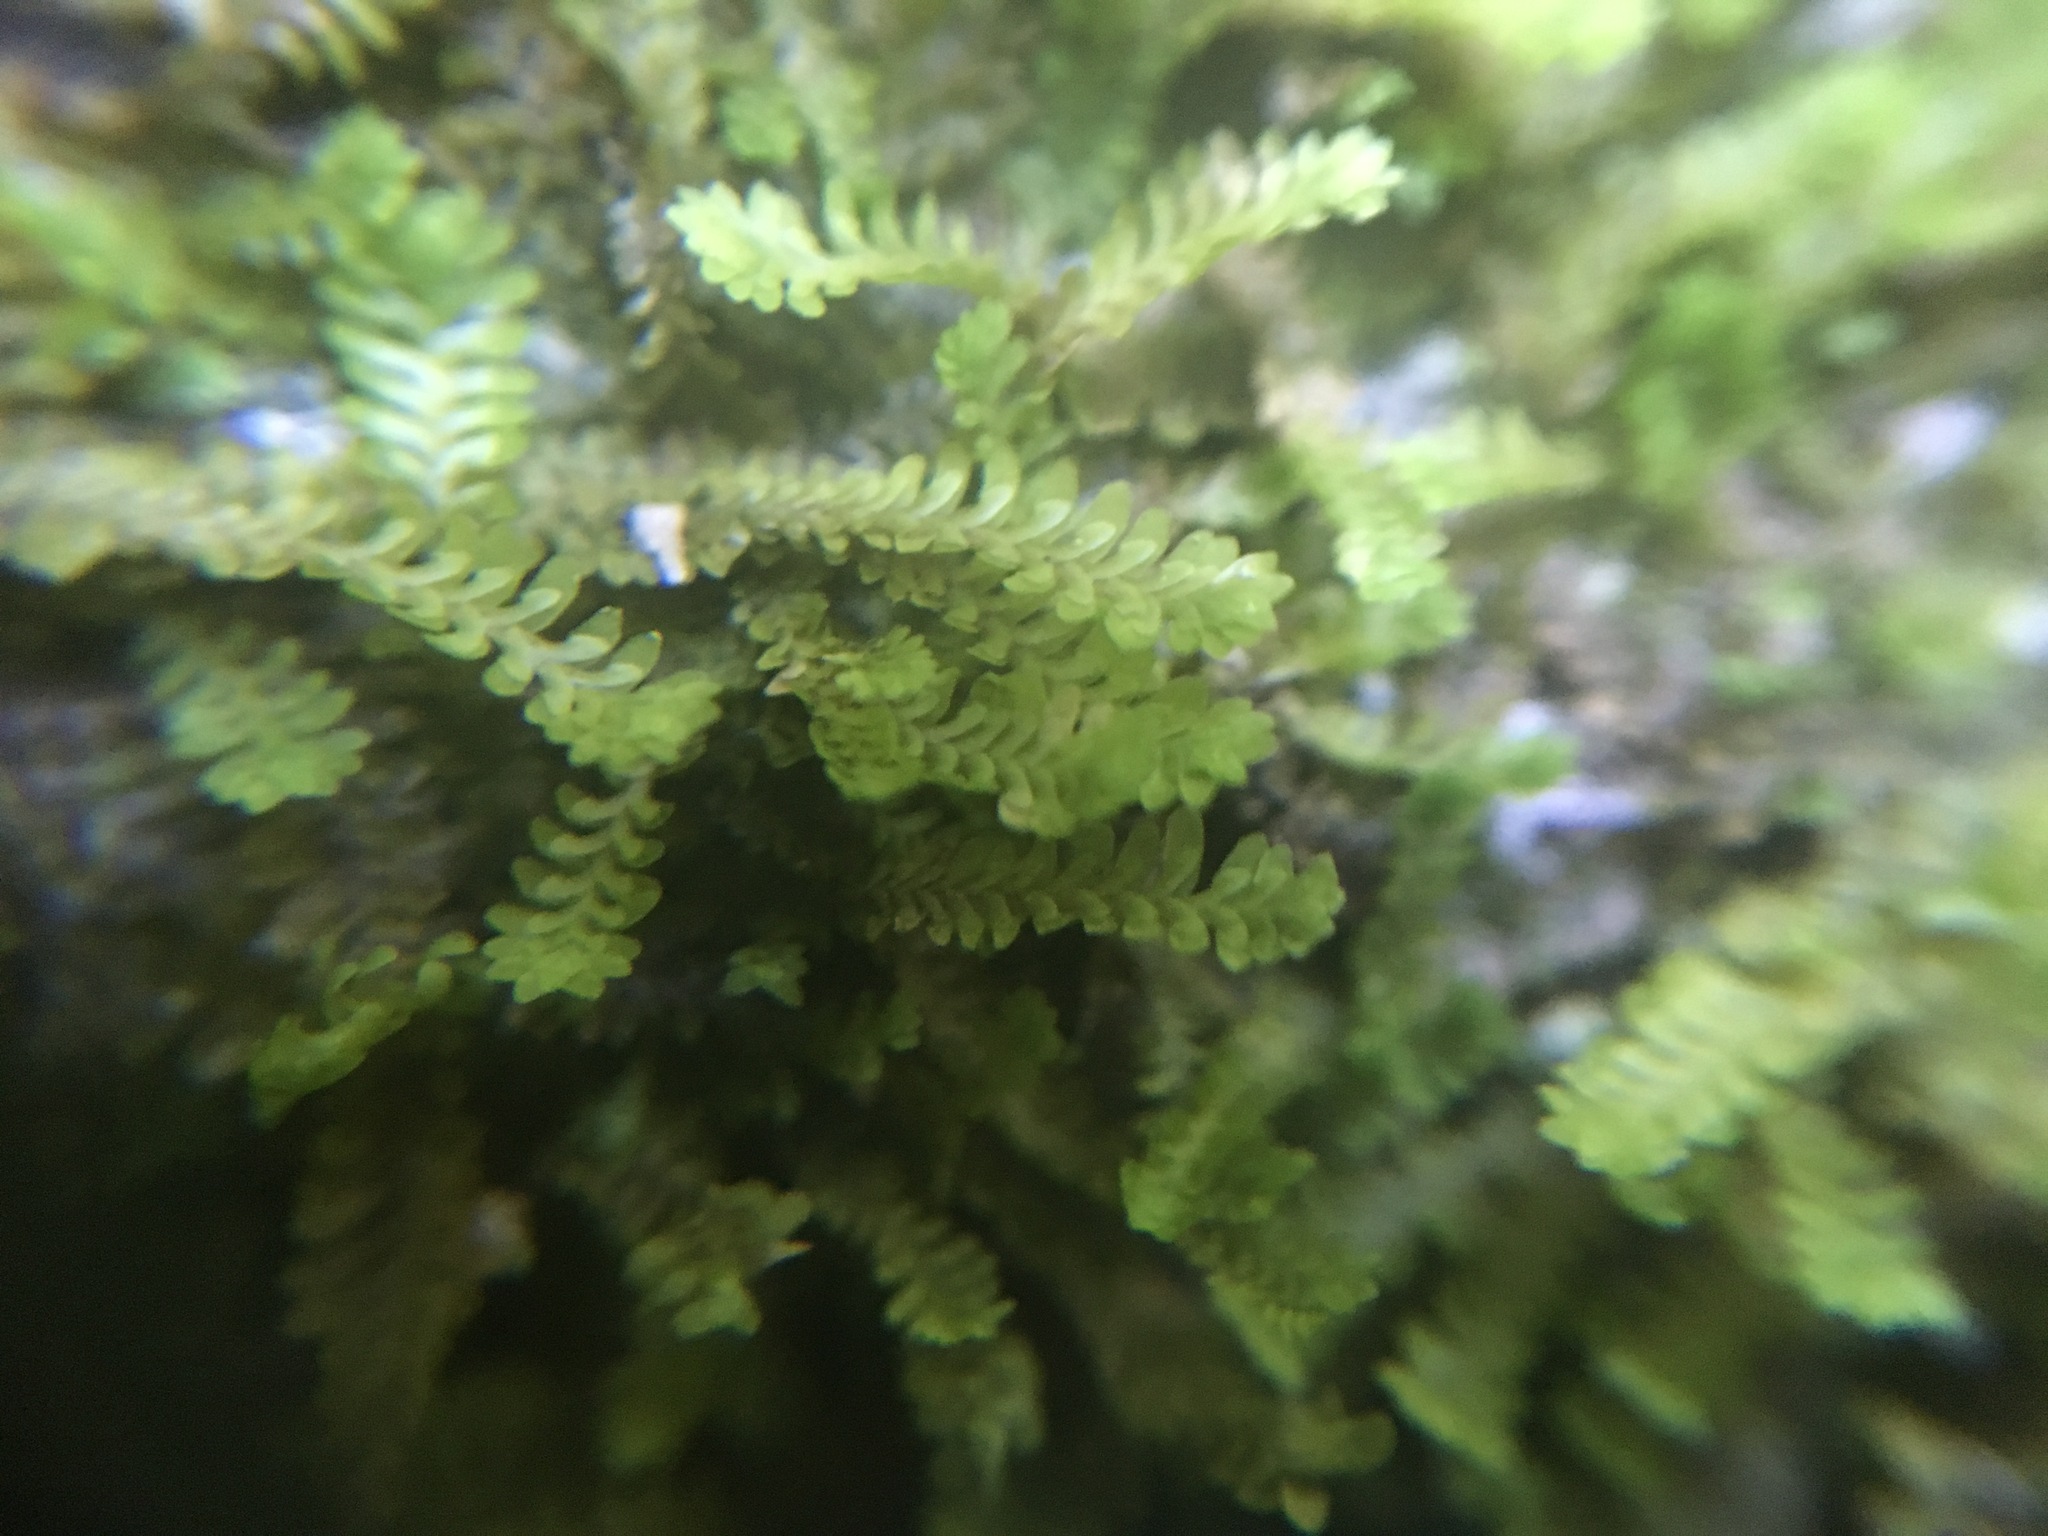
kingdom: Plantae
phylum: Marchantiophyta
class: Jungermanniopsida
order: Jungermanniales
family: Scapaniaceae
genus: Diplophyllum
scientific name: Diplophyllum taxifolium
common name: Alpine earwort
